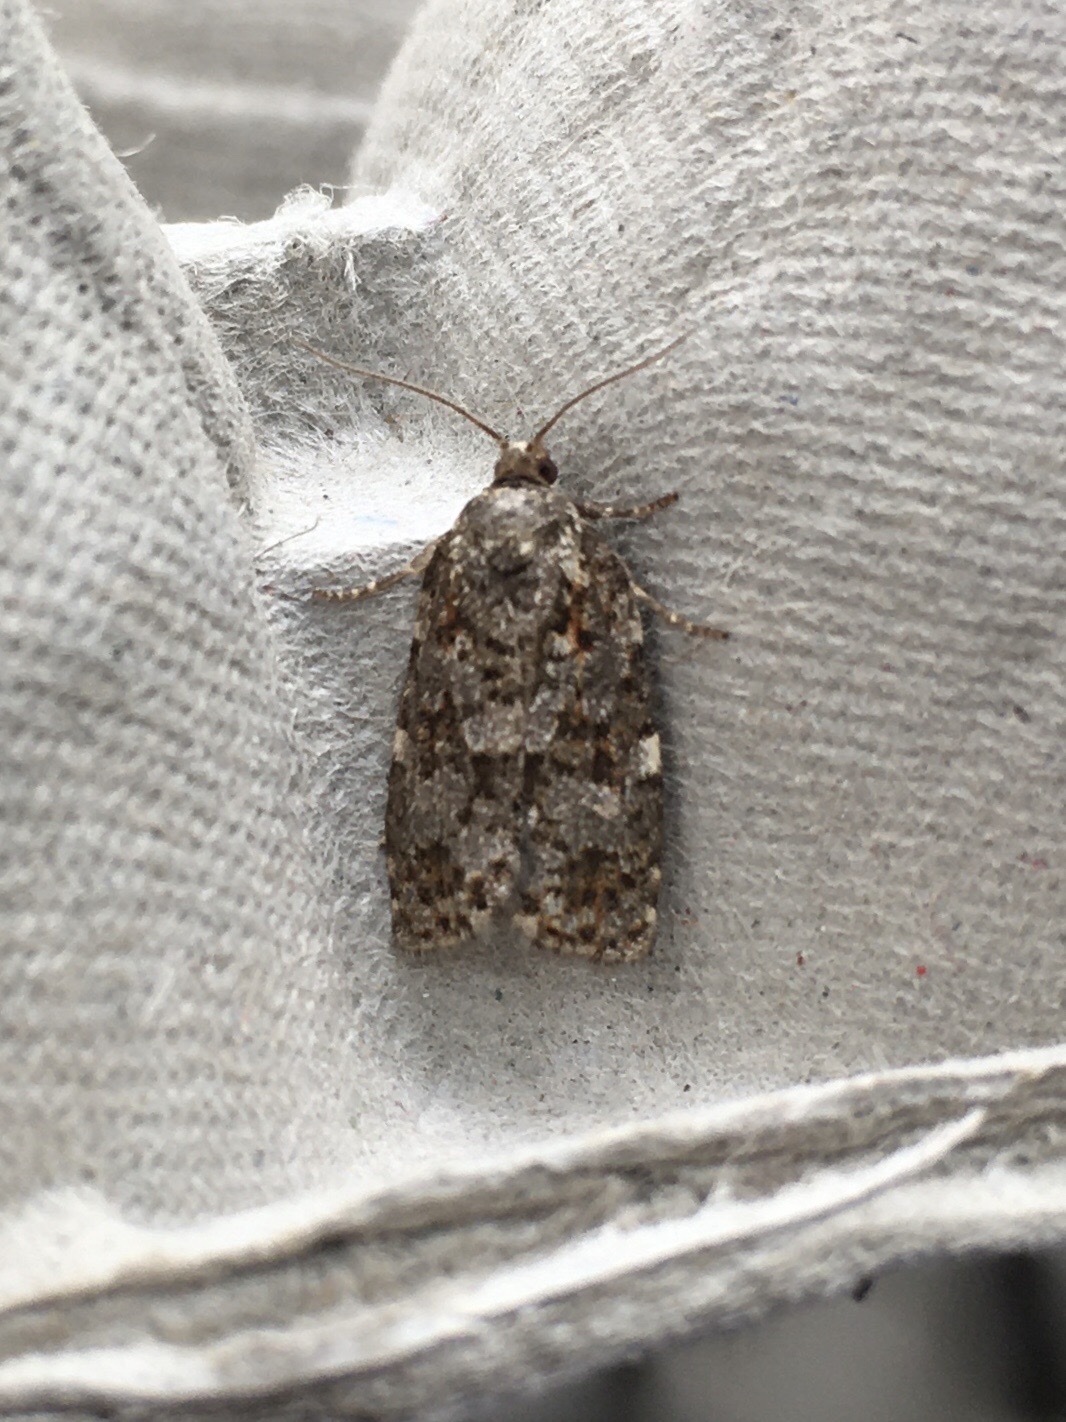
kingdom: Animalia
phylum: Arthropoda
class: Insecta
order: Lepidoptera
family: Tortricidae
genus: Choristoneura
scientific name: Choristoneura fumiferana
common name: Spruce budworm
